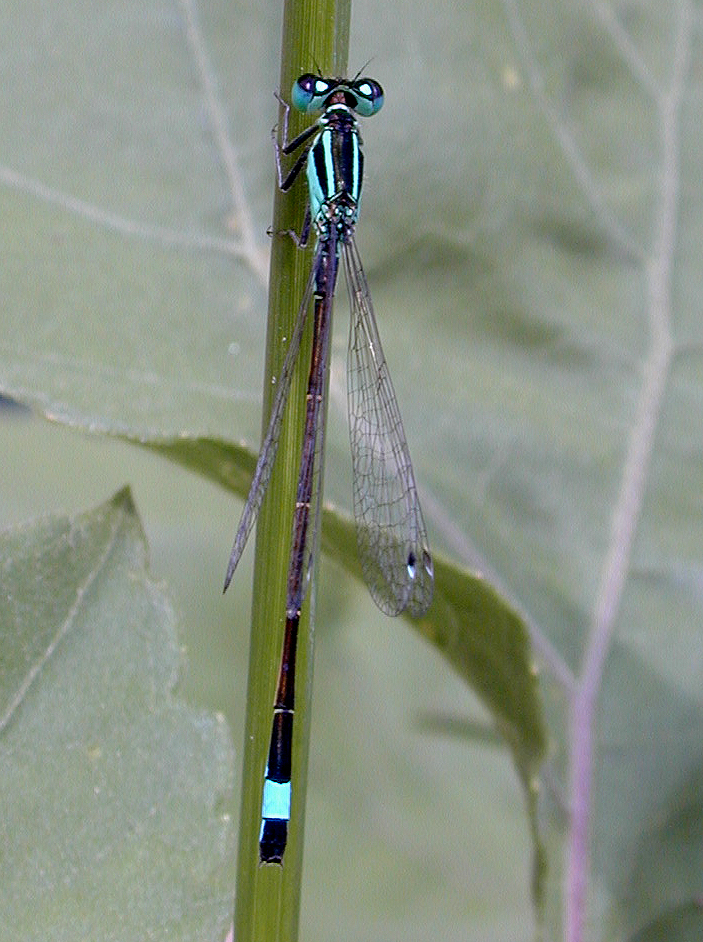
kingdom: Animalia
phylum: Arthropoda
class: Insecta
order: Odonata
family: Coenagrionidae
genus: Ischnura
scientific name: Ischnura elegans
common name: Blue-tailed damselfly
